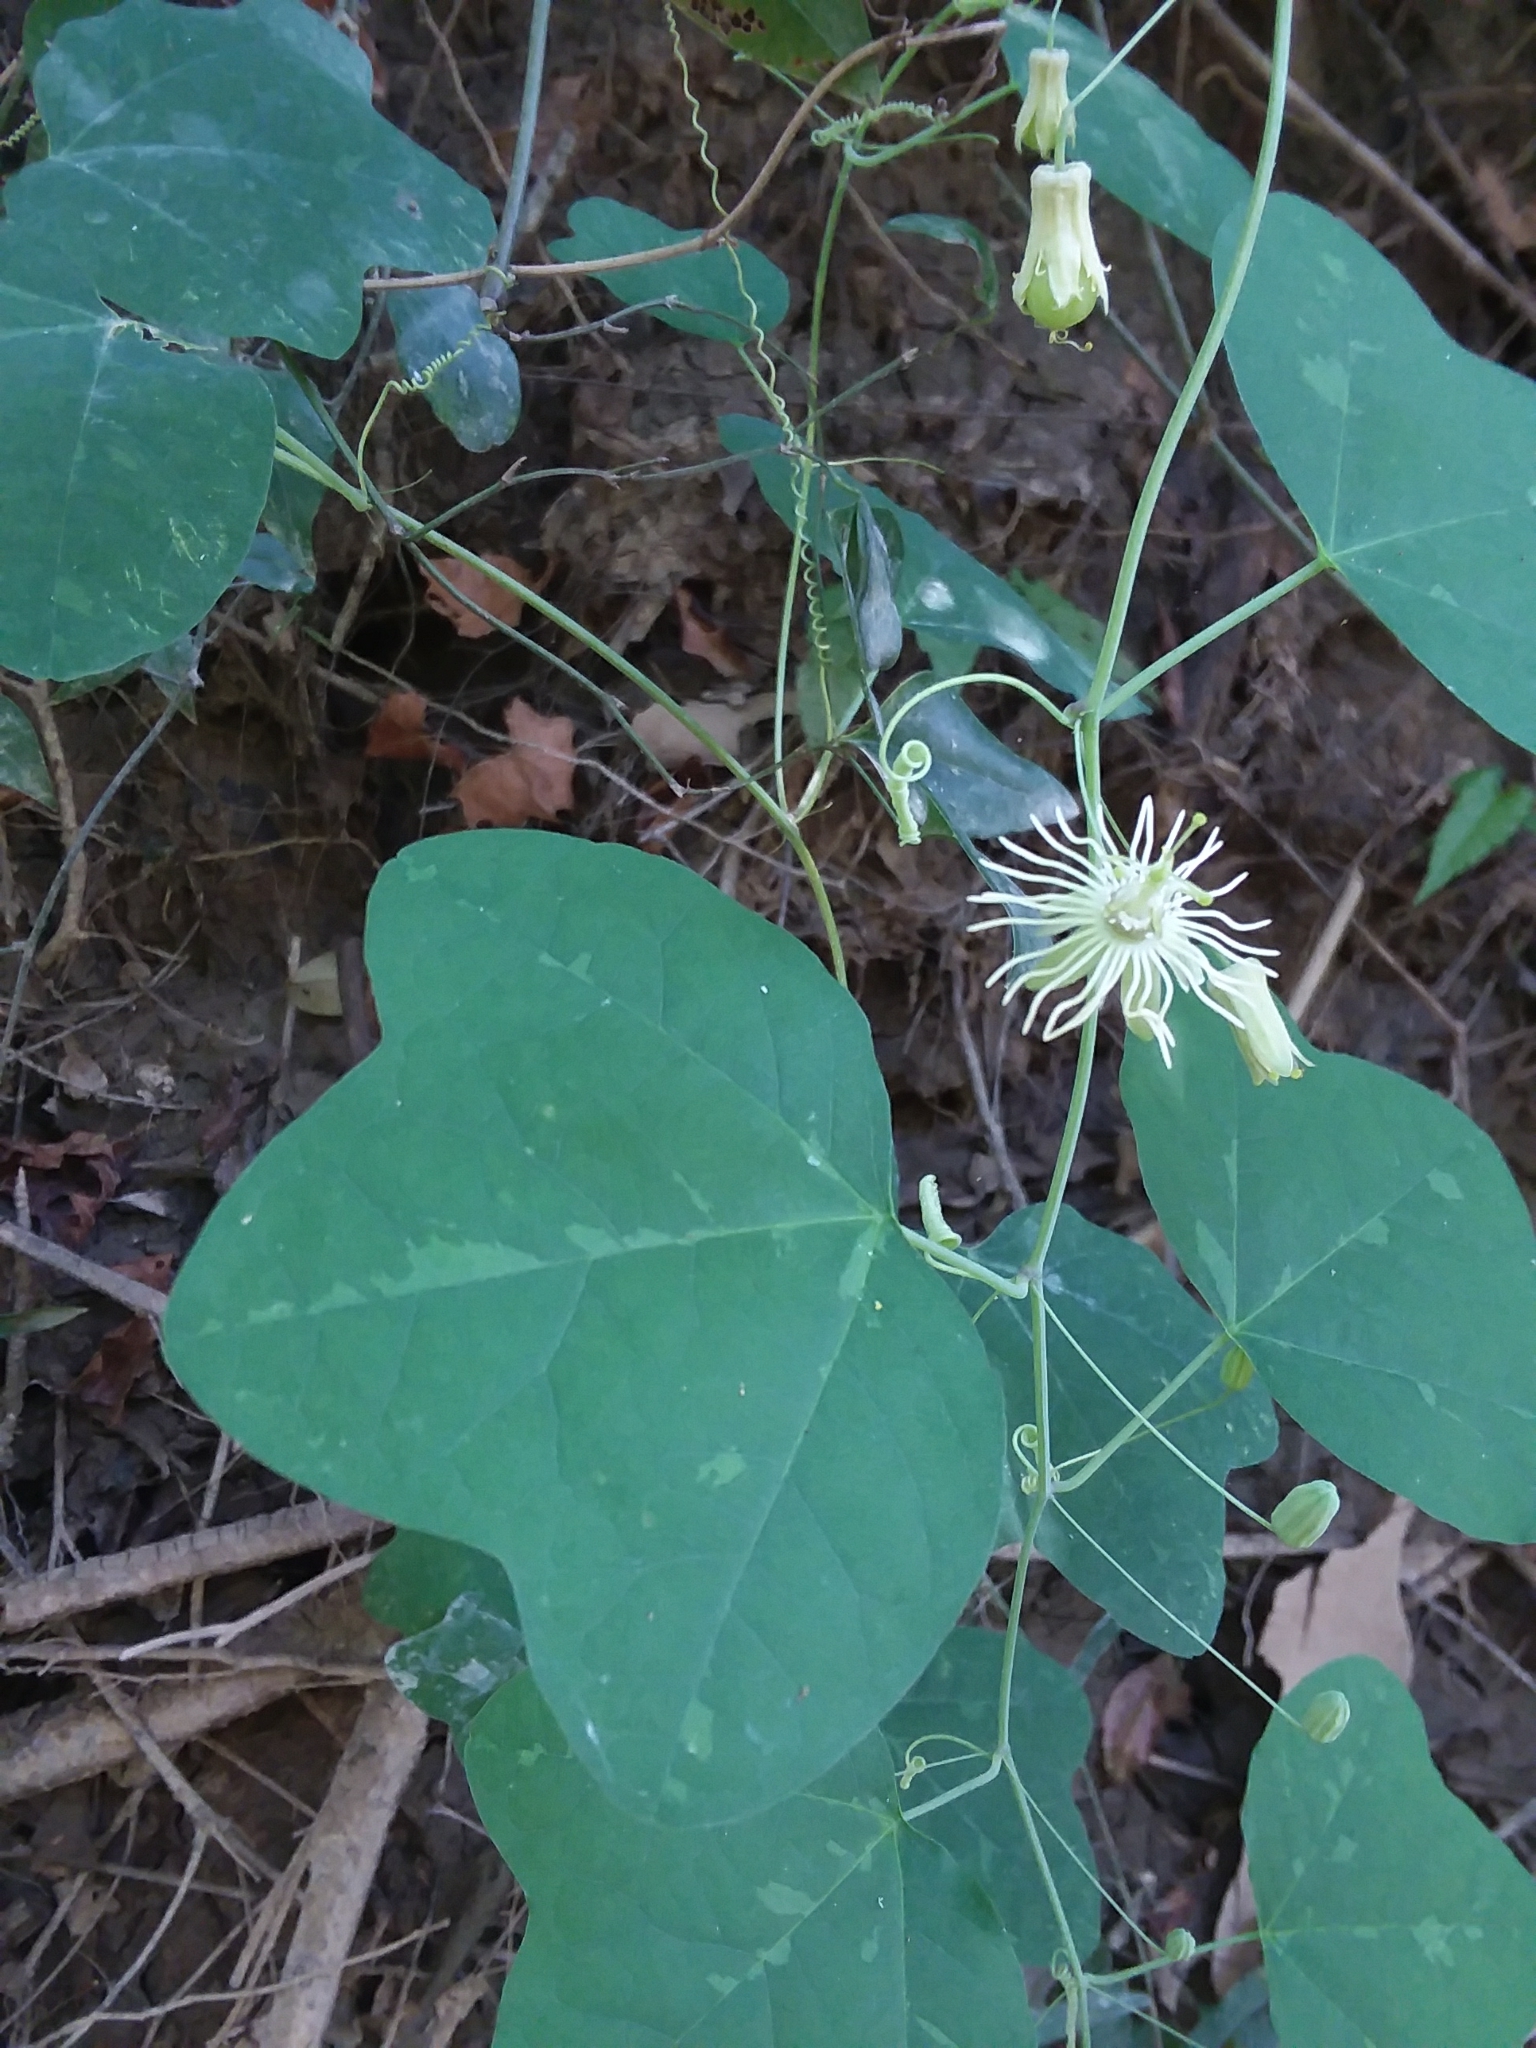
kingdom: Plantae
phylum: Tracheophyta
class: Magnoliopsida
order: Malpighiales
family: Passifloraceae
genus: Passiflora
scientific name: Passiflora lutea
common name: Yellow passionflower
